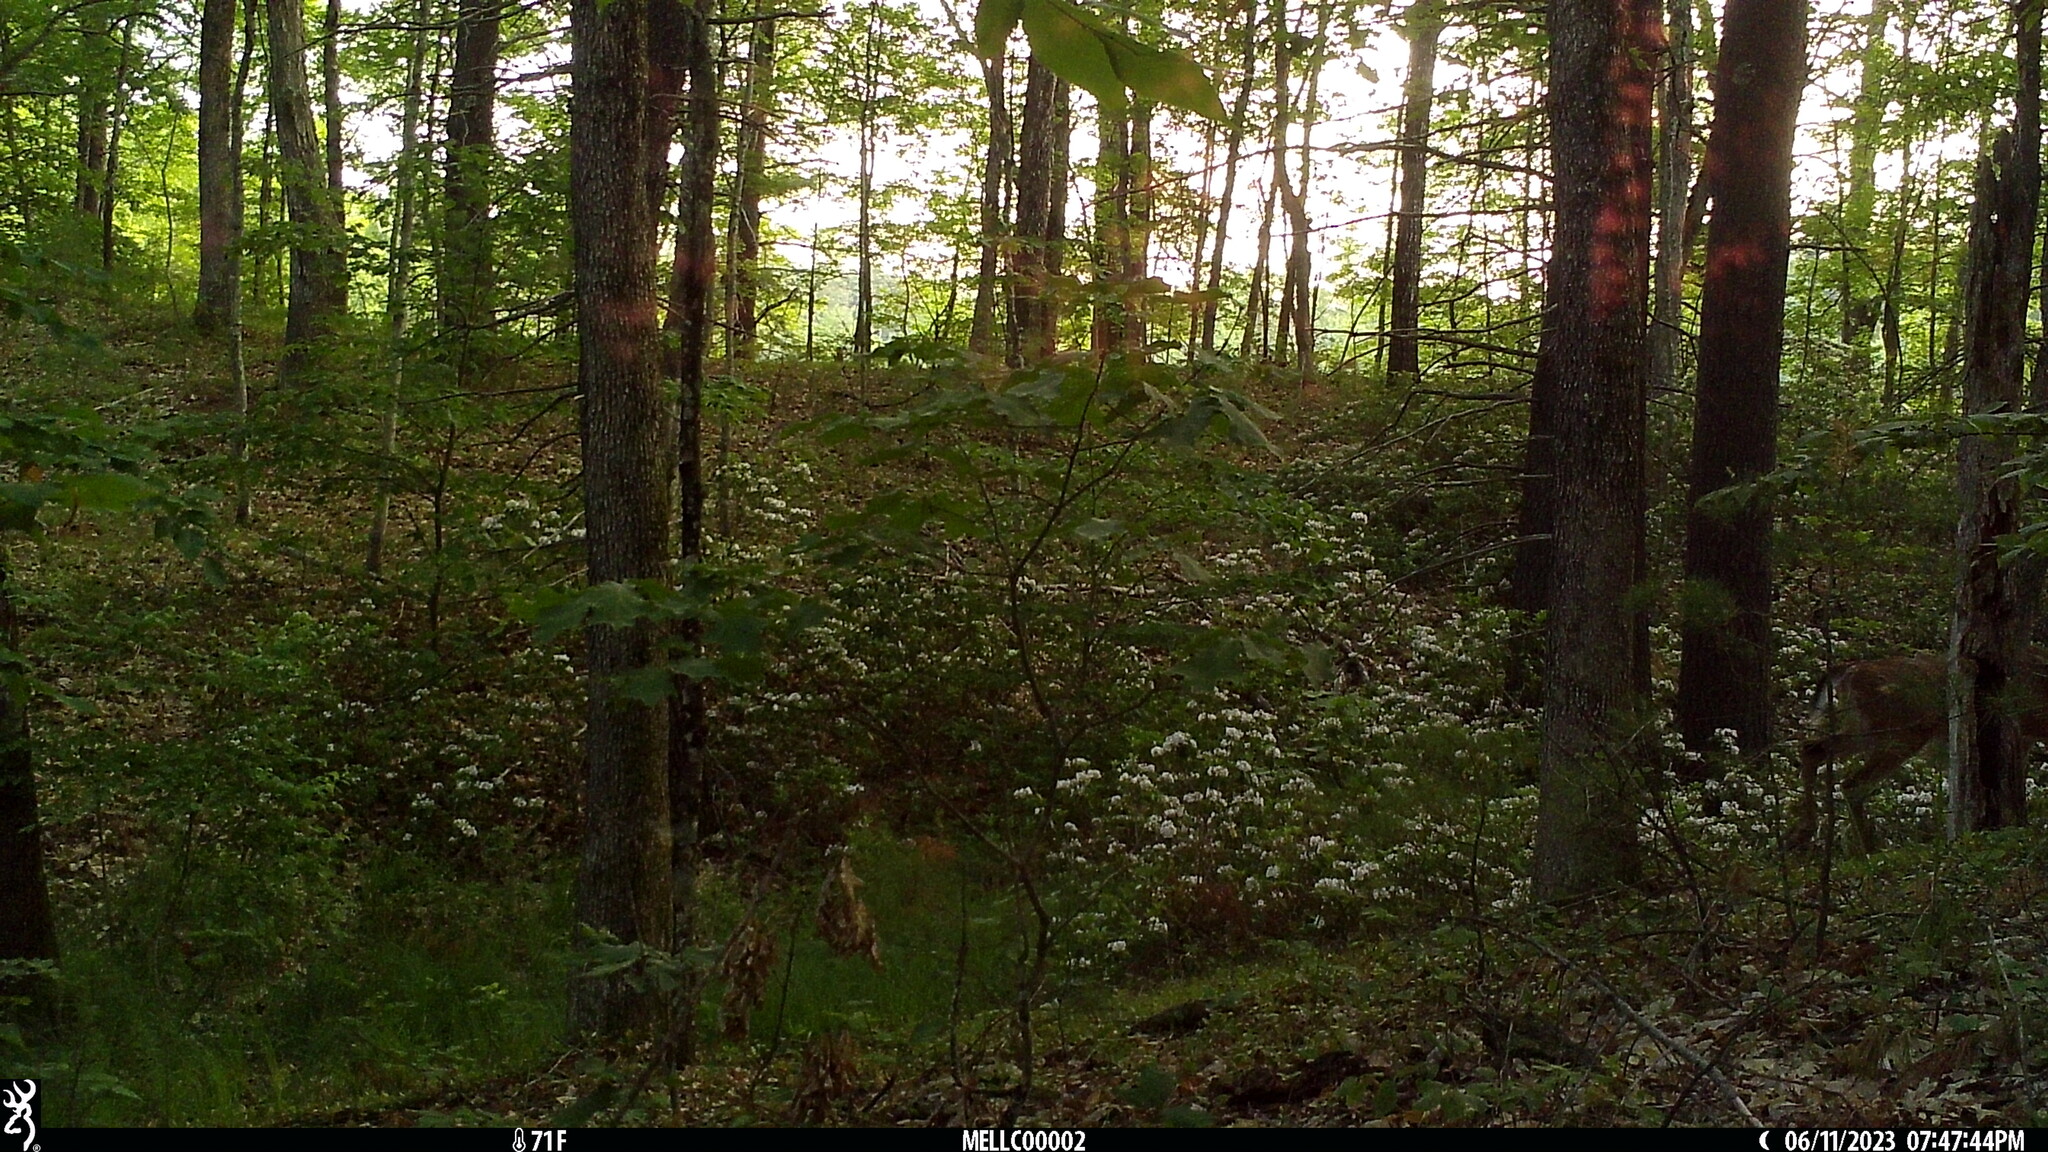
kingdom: Animalia
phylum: Chordata
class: Mammalia
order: Artiodactyla
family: Cervidae
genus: Odocoileus
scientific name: Odocoileus virginianus
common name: White-tailed deer
